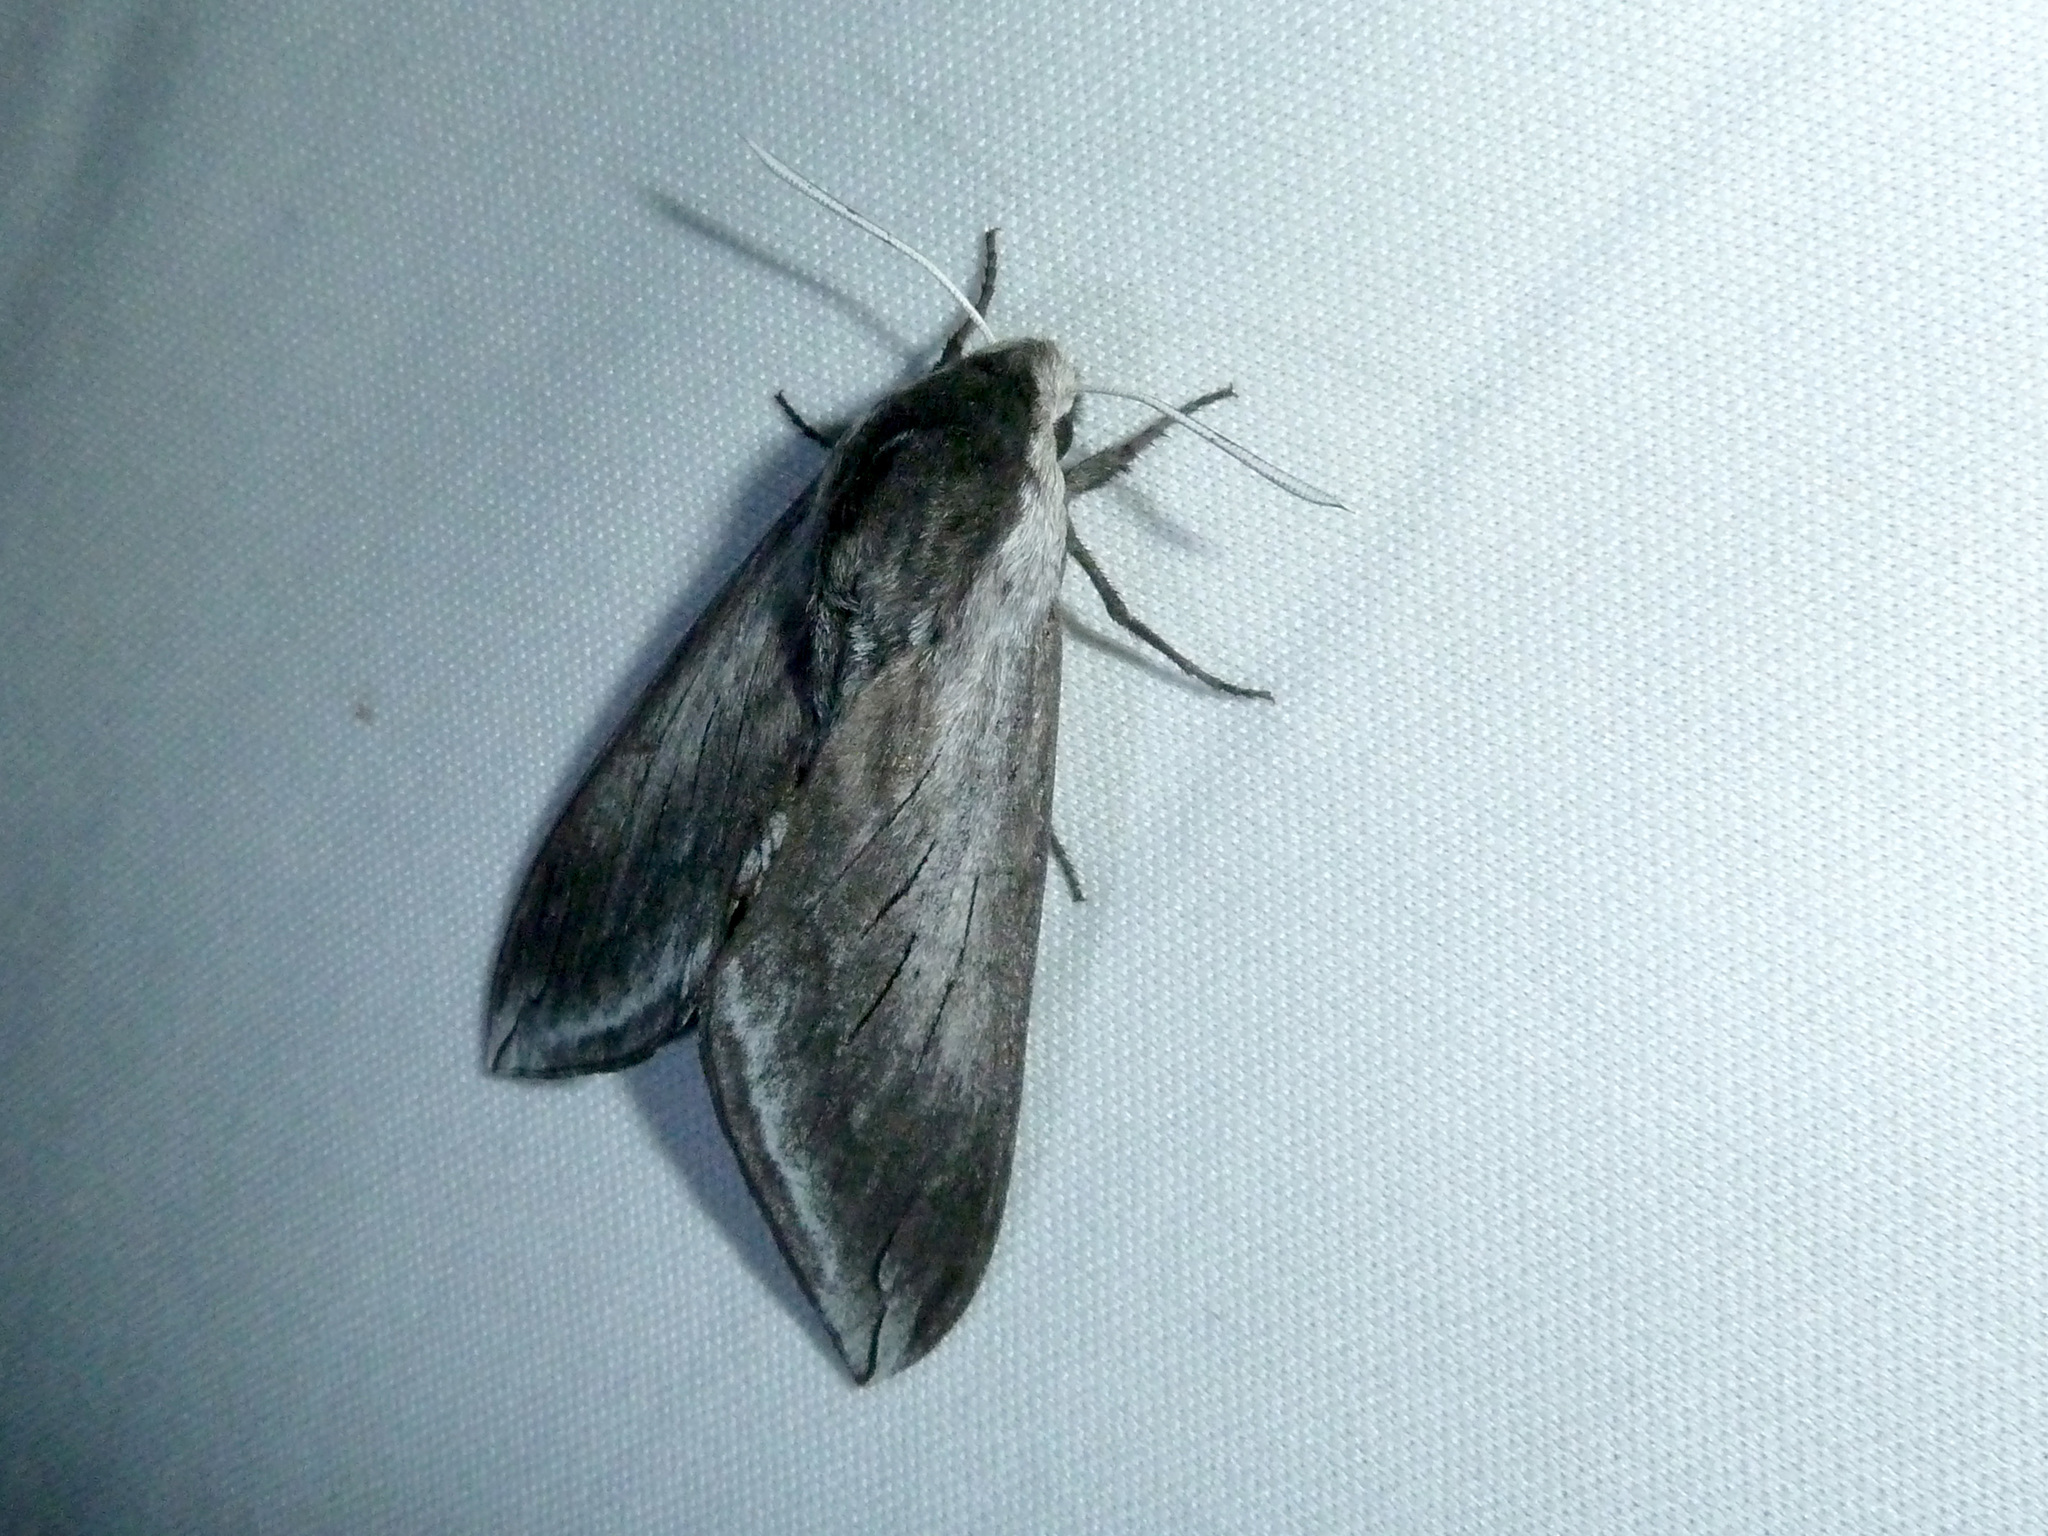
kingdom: Animalia
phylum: Arthropoda
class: Insecta
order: Lepidoptera
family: Sphingidae
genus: Sphinx
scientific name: Sphinx perelegans
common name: Elegant sphinx
